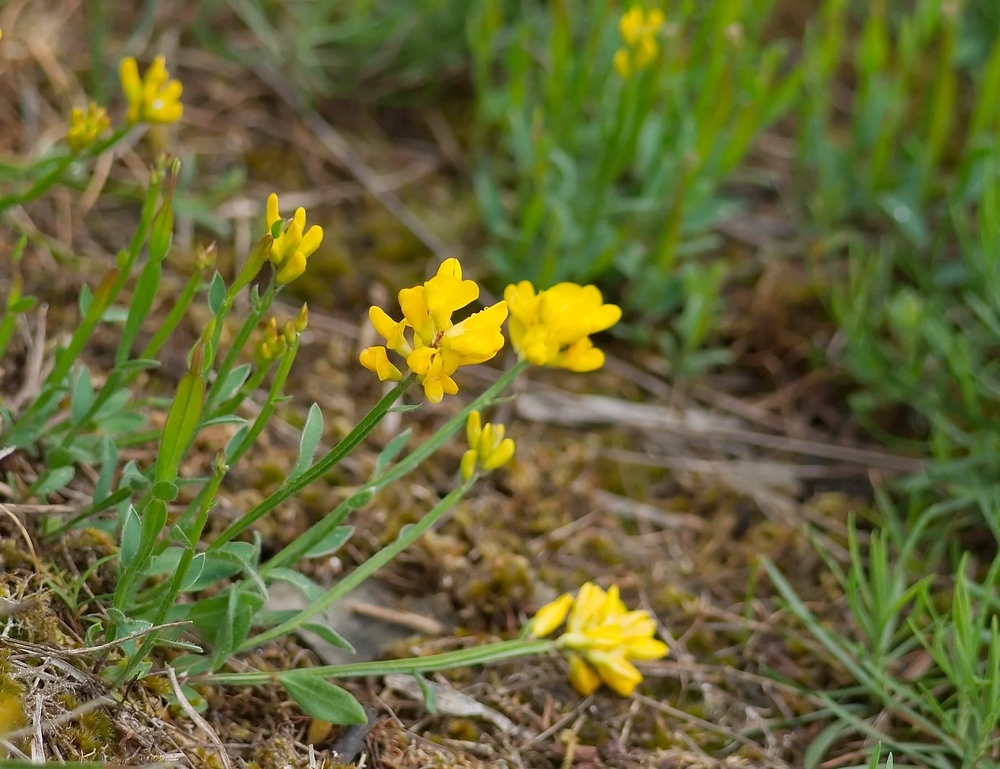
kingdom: Plantae
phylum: Tracheophyta
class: Magnoliopsida
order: Fabales
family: Fabaceae
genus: Genista
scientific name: Genista sagittalis
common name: Winged greenweed
